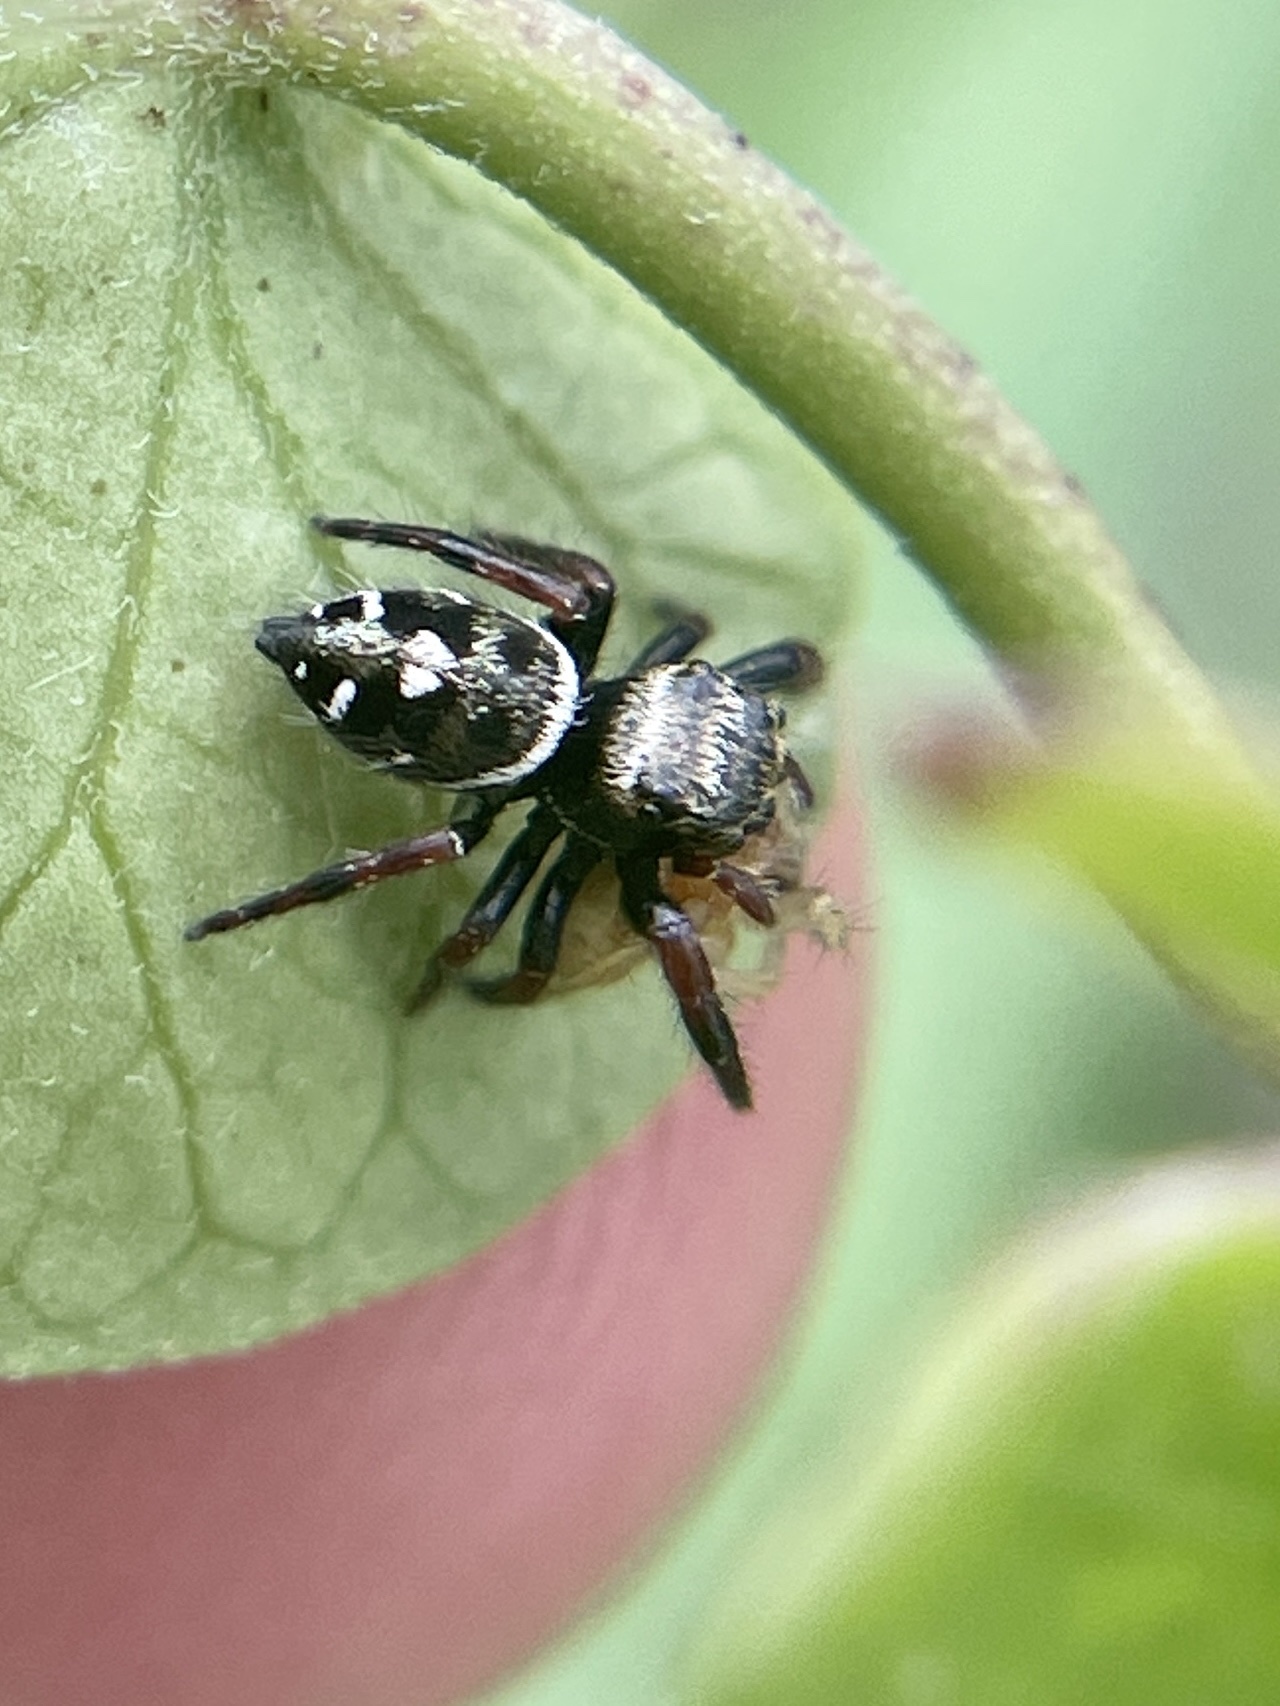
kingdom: Animalia
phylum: Arthropoda
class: Arachnida
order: Araneae
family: Salticidae
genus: Phidippus
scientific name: Phidippus audax
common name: Bold jumper
